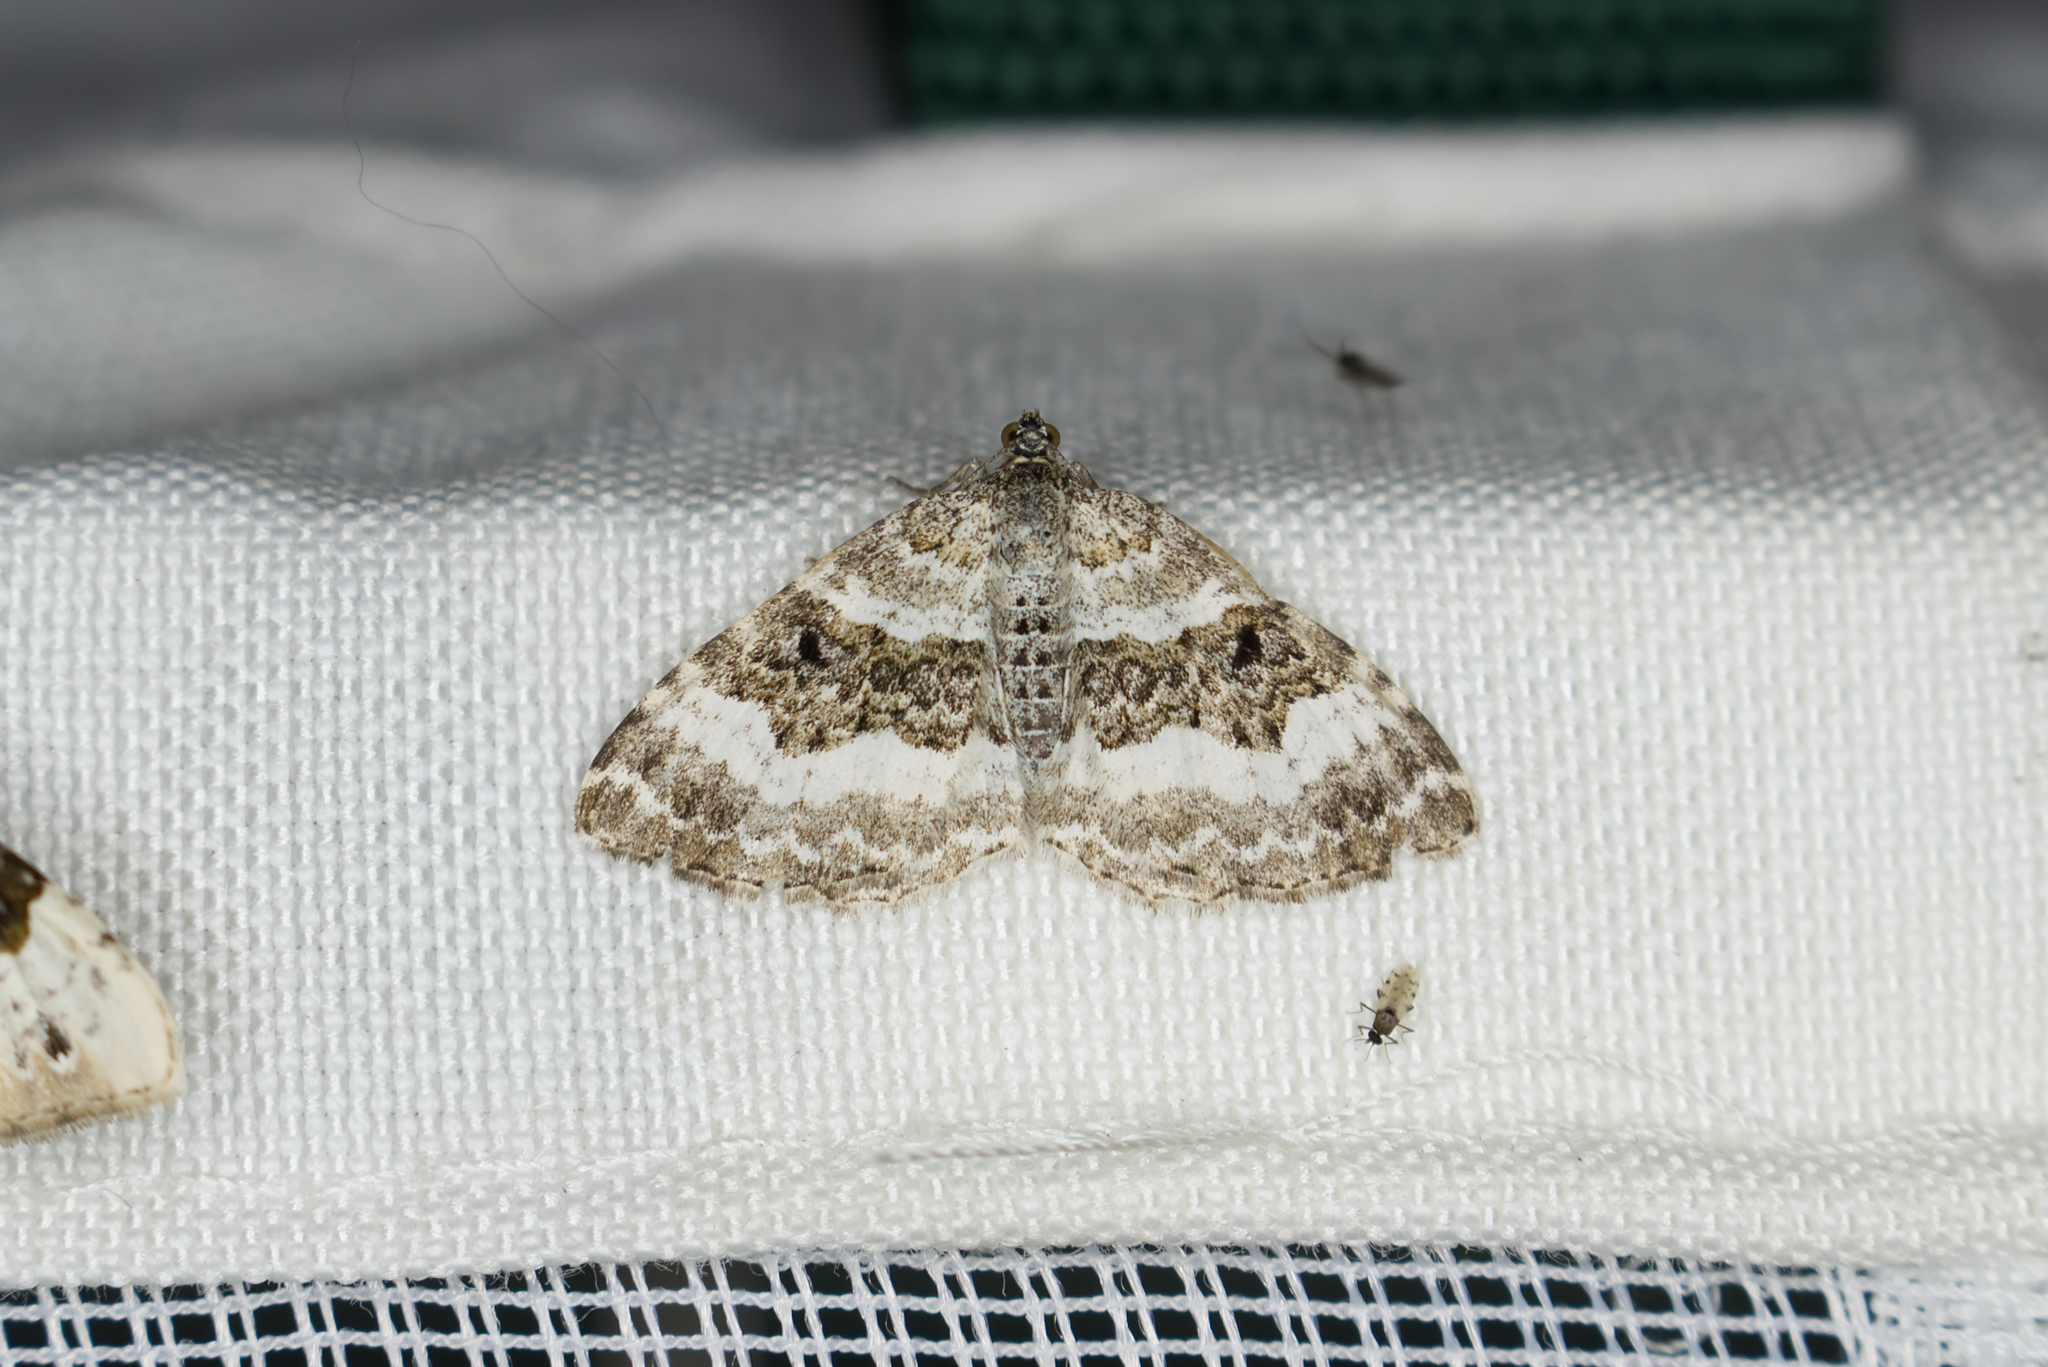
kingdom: Animalia
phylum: Arthropoda
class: Insecta
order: Lepidoptera
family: Geometridae
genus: Epirrhoe
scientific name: Epirrhoe alternata
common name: Common carpet
